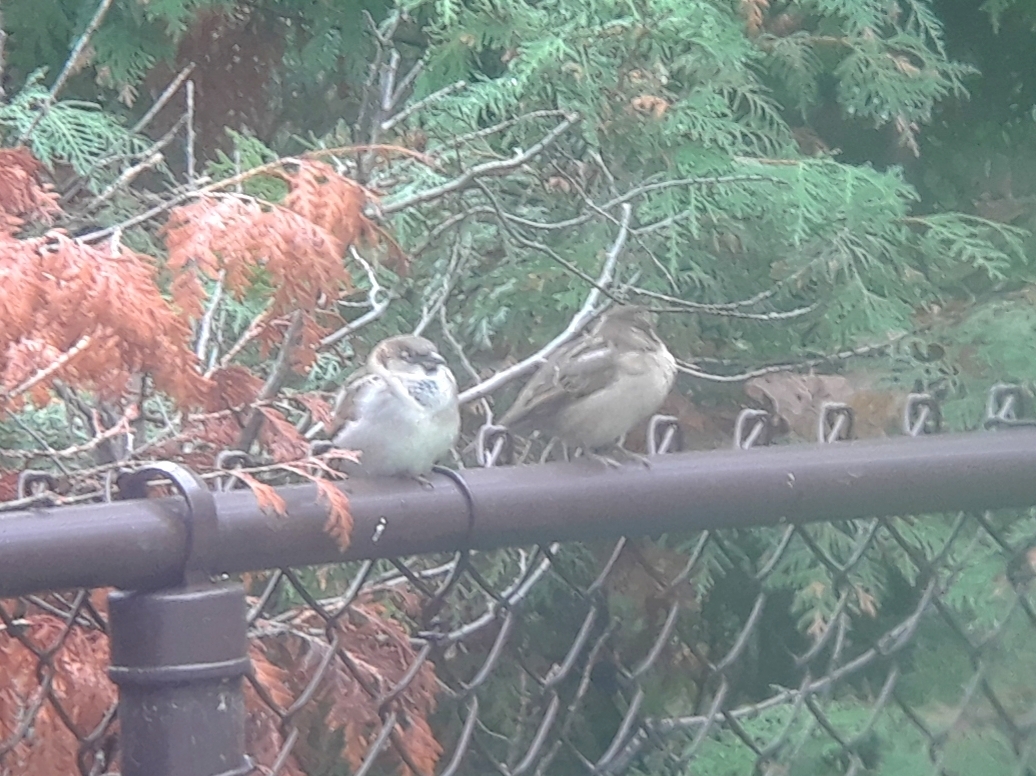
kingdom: Animalia
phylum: Chordata
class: Aves
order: Passeriformes
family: Passeridae
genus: Passer
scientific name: Passer domesticus
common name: House sparrow
